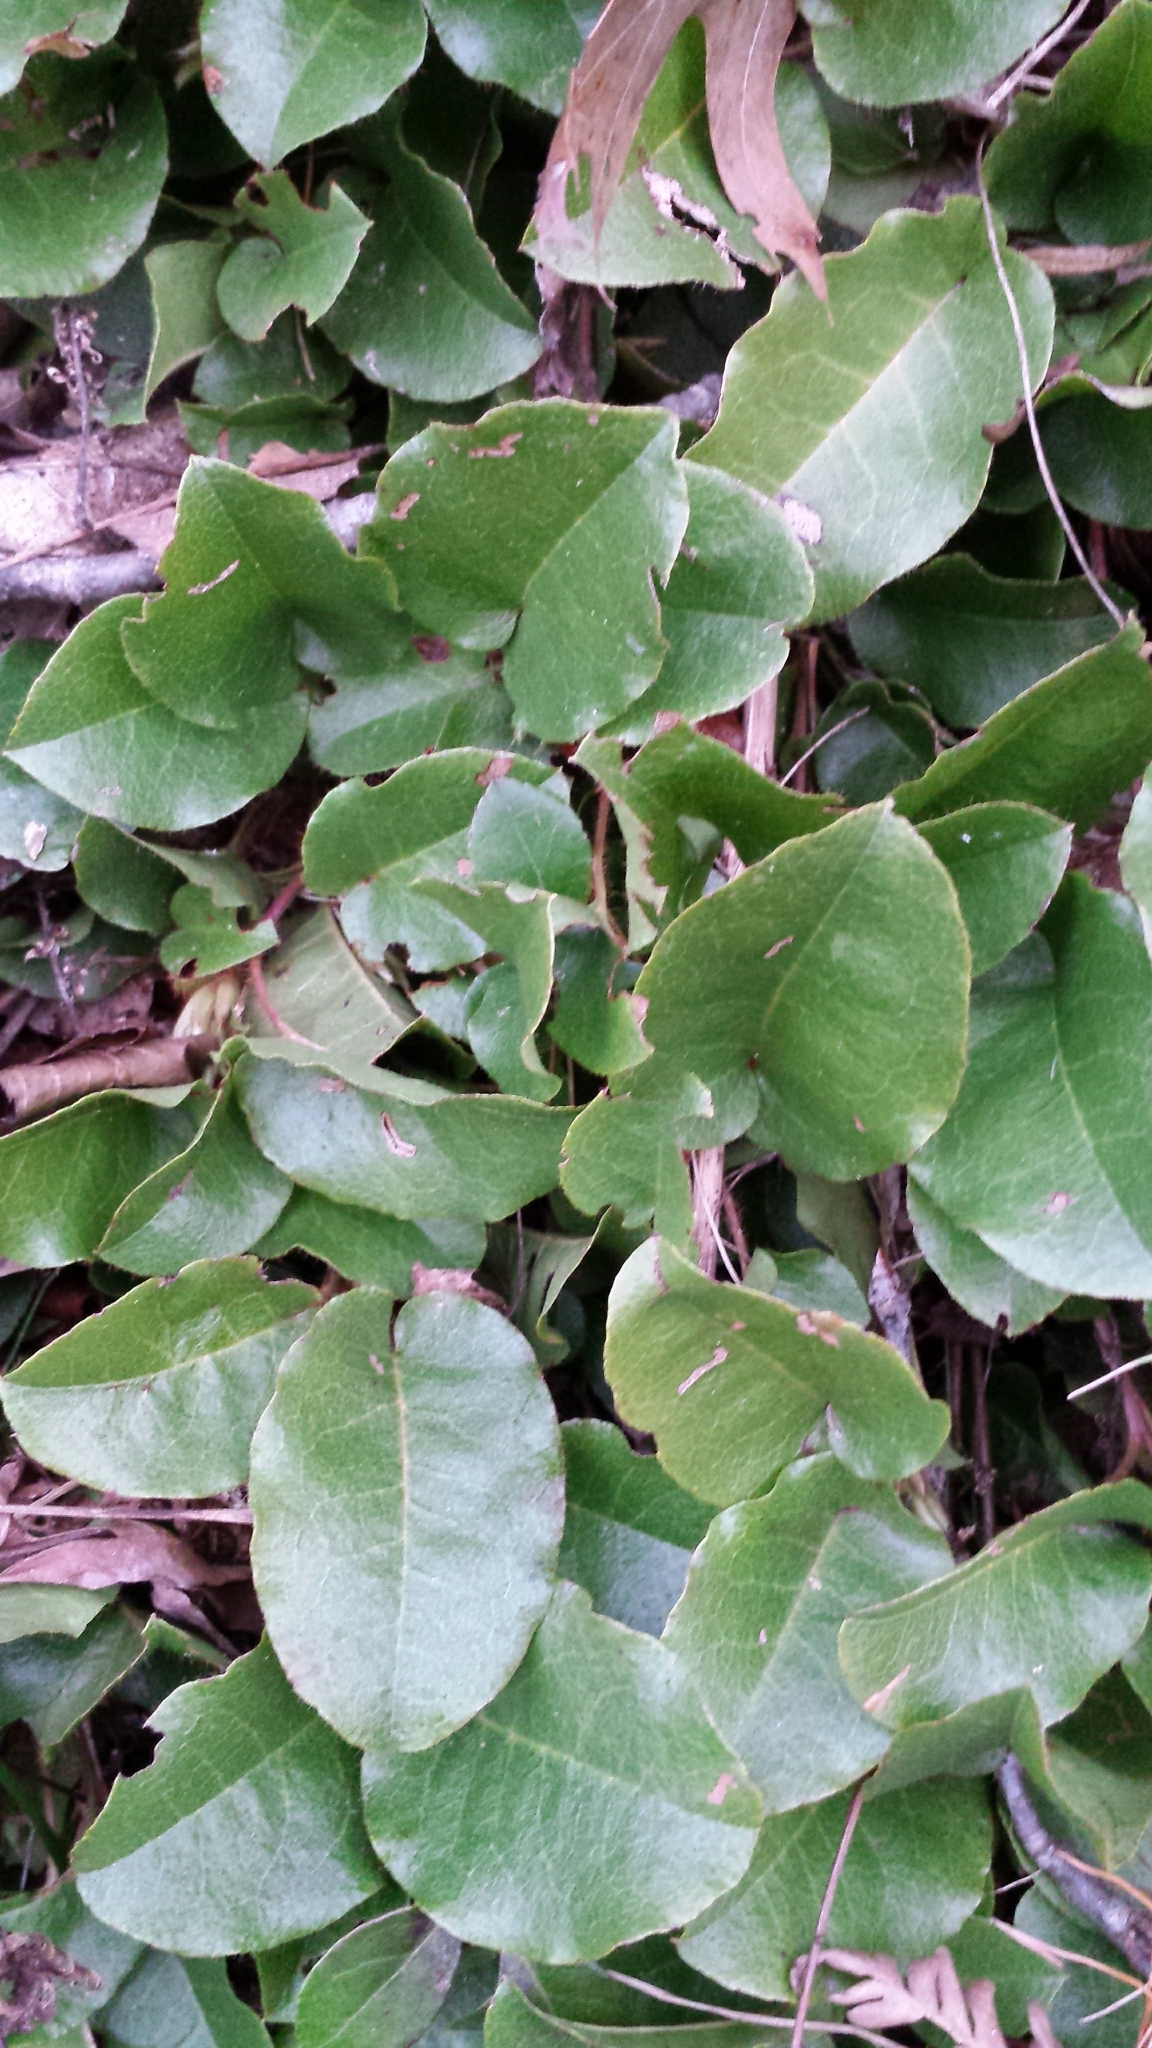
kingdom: Plantae
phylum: Tracheophyta
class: Magnoliopsida
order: Ericales
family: Ericaceae
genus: Epigaea
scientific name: Epigaea repens
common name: Gravelroot
